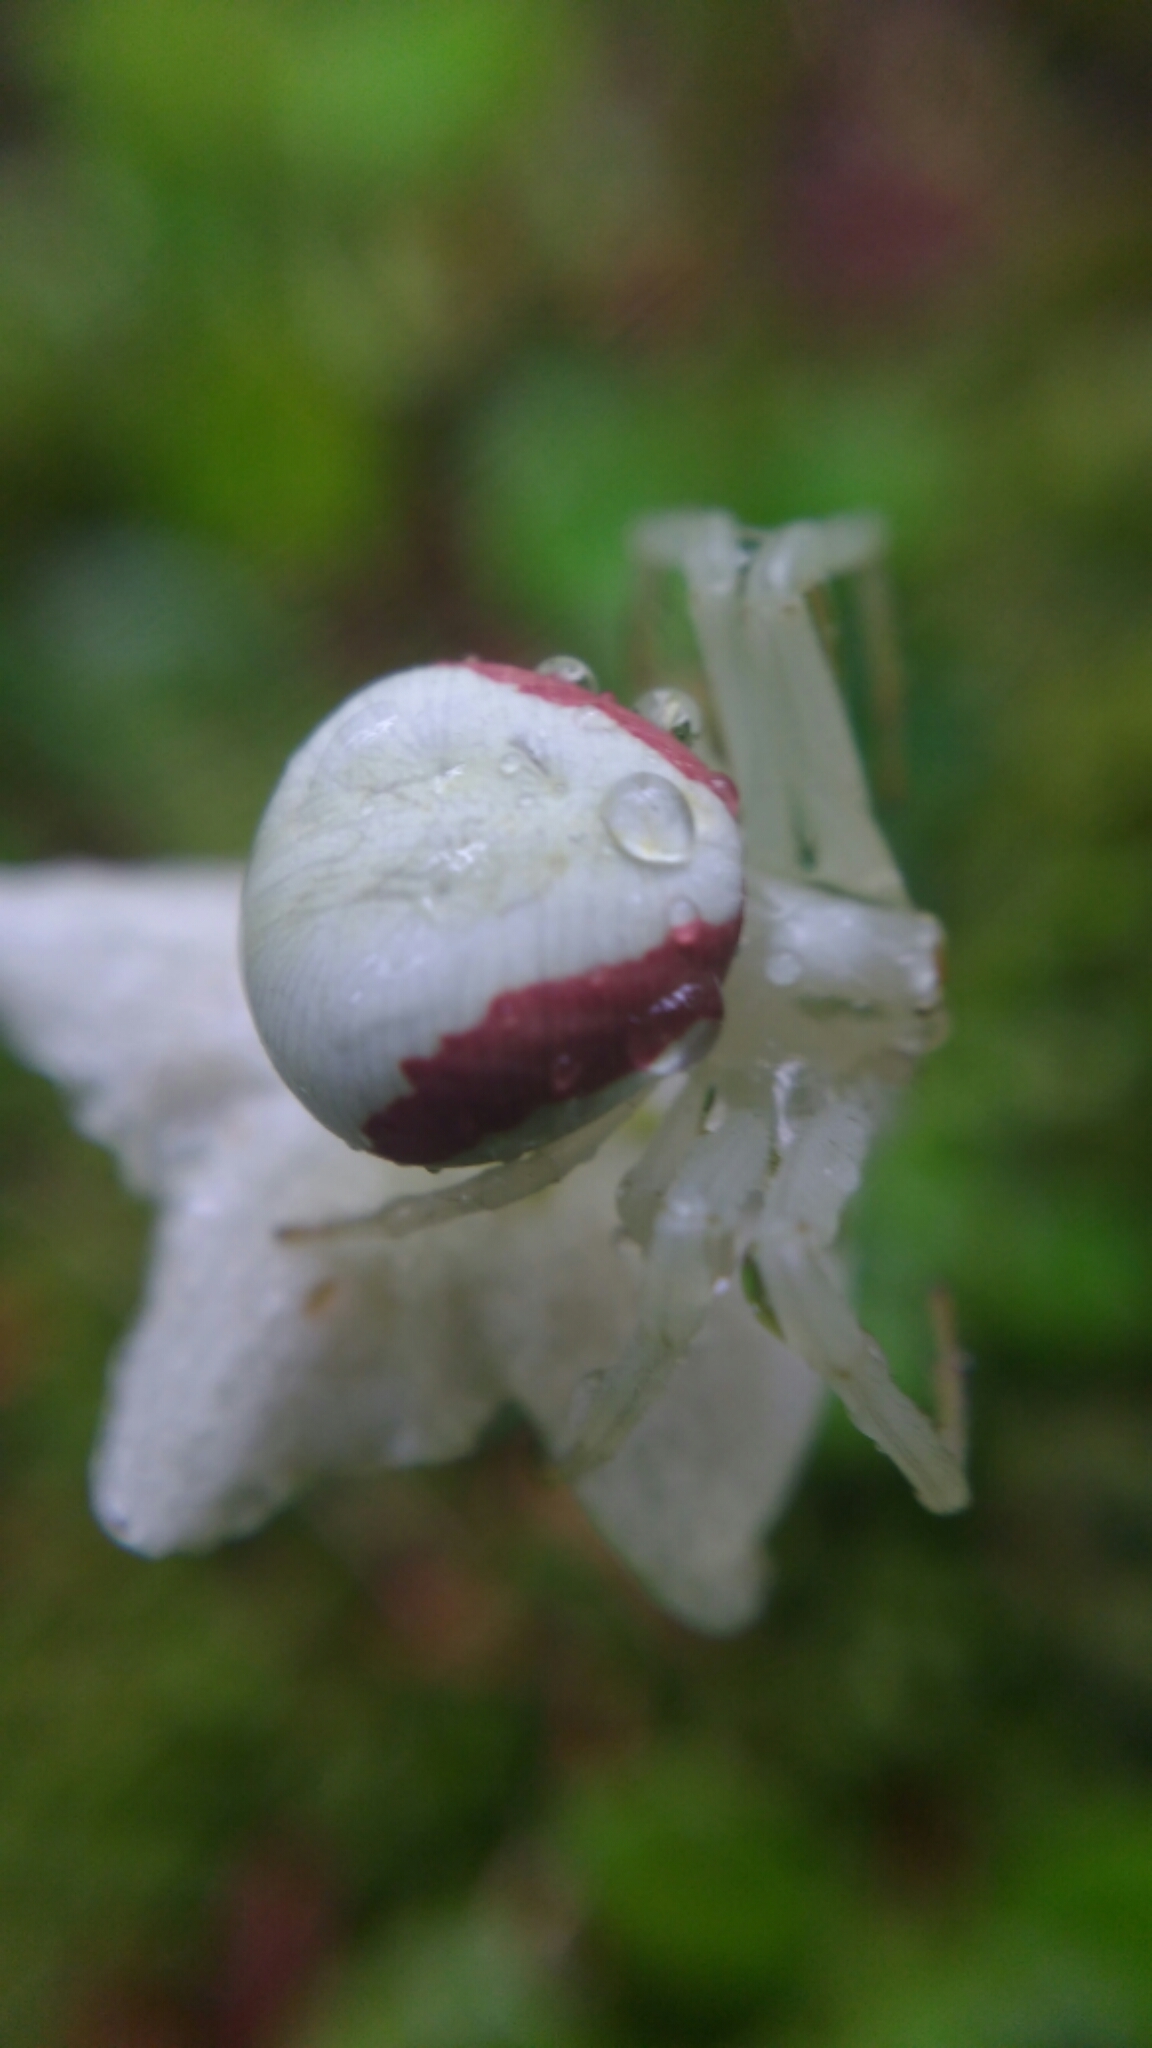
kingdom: Animalia
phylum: Arthropoda
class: Arachnida
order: Araneae
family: Thomisidae
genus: Misumena
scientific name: Misumena vatia
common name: Goldenrod crab spider
